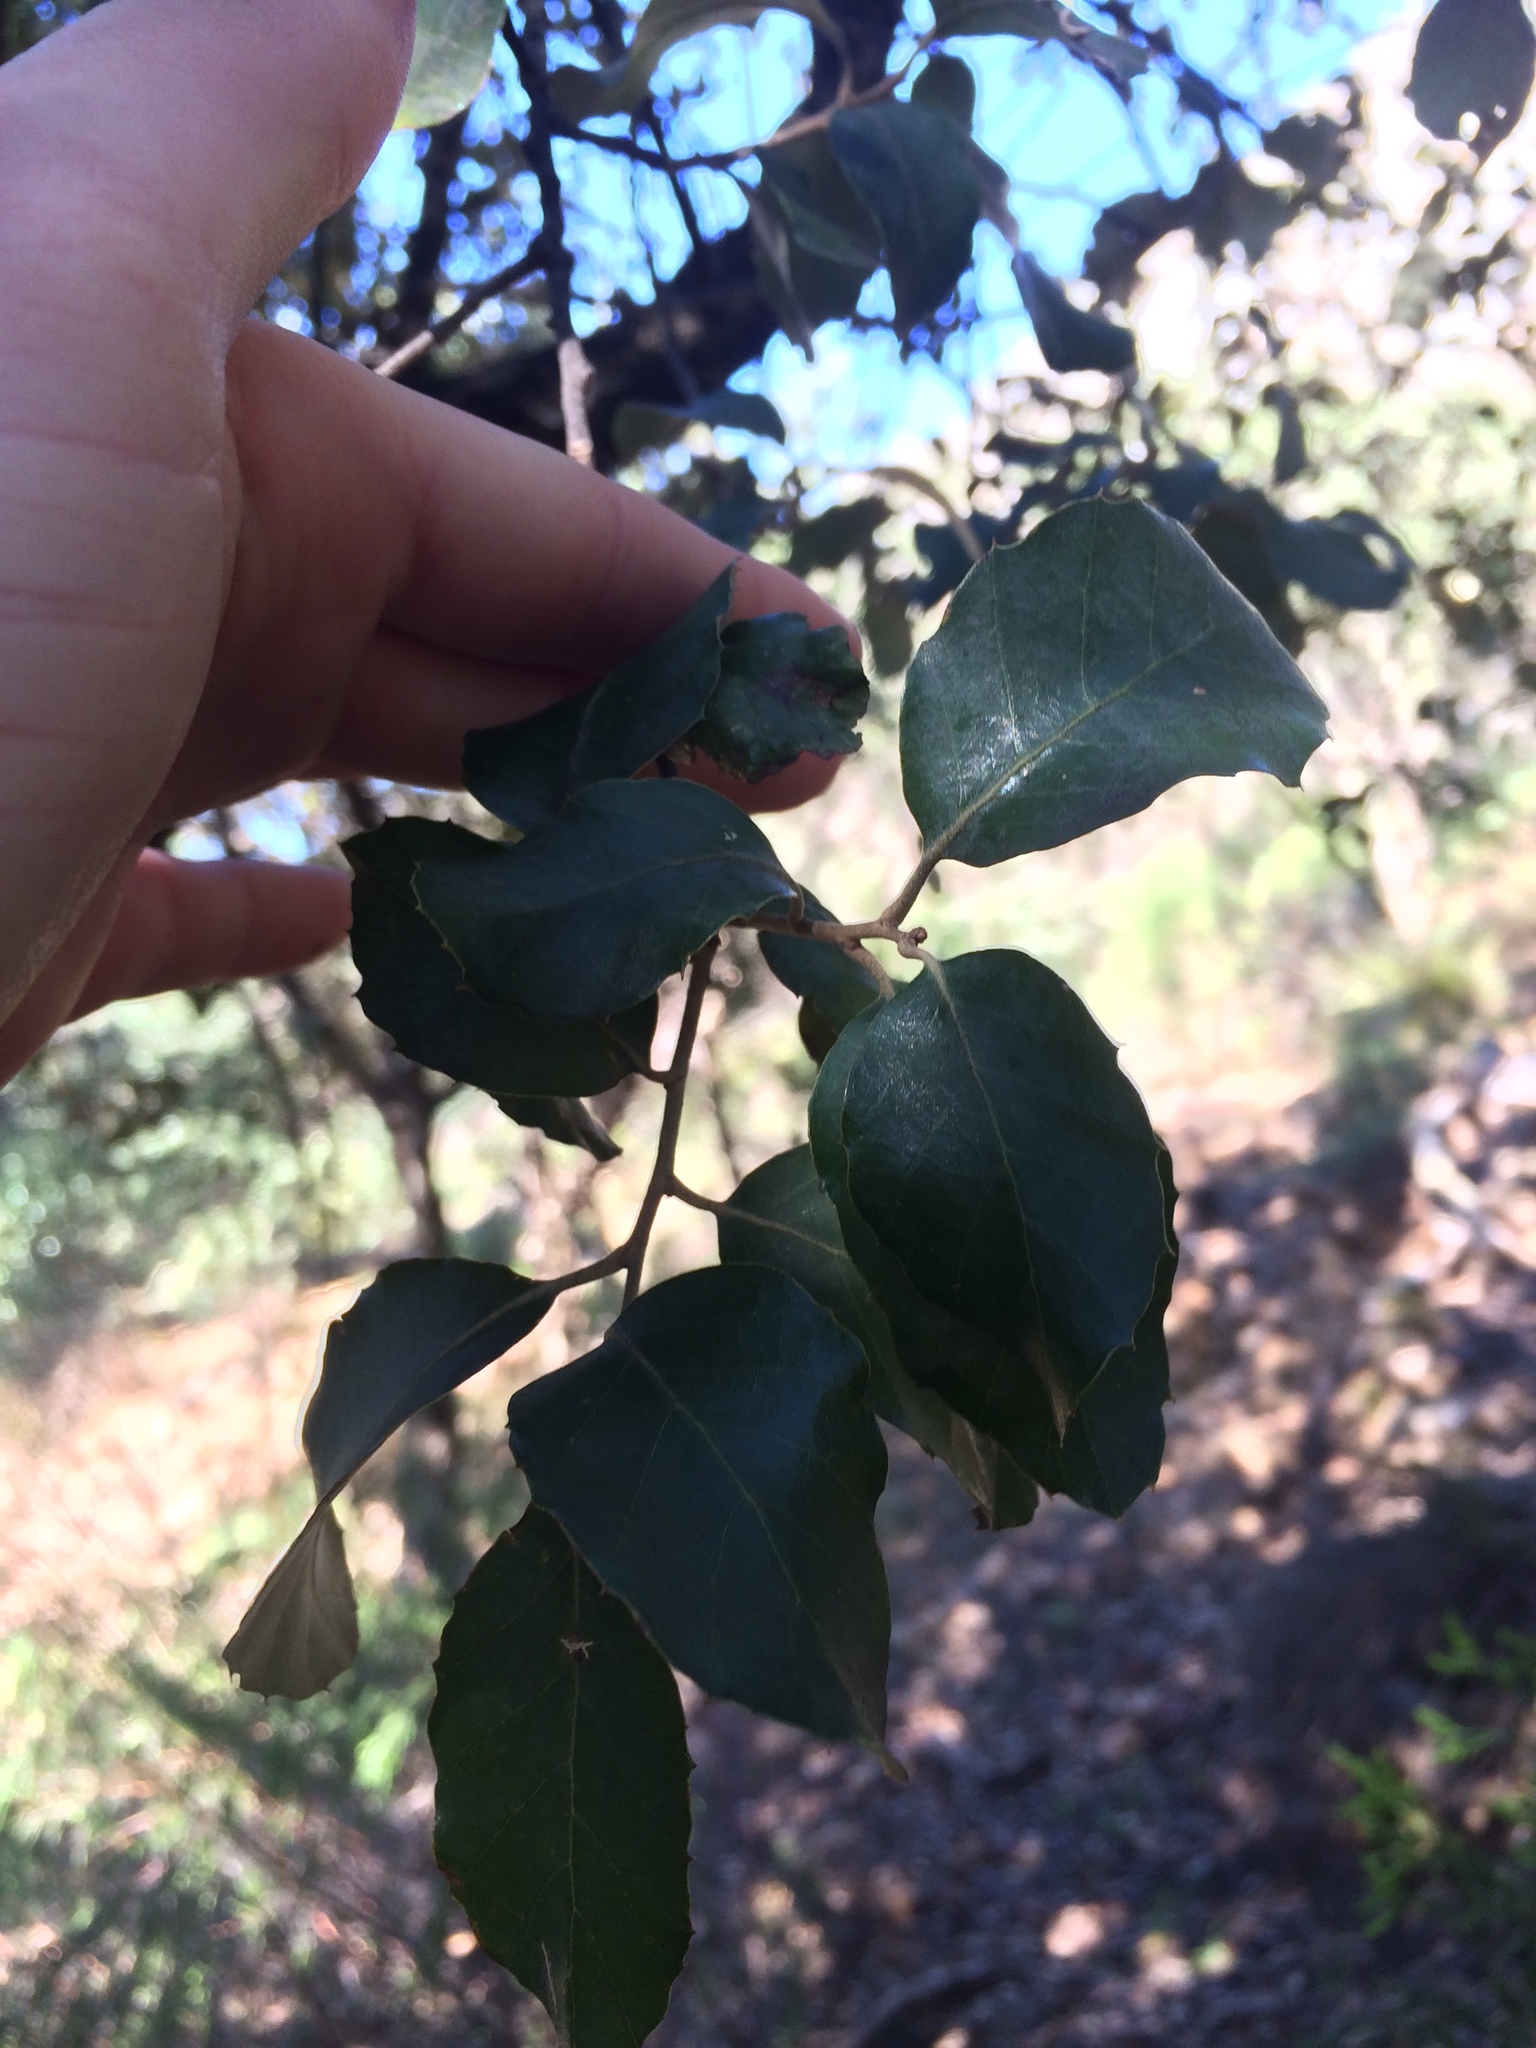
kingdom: Plantae
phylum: Tracheophyta
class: Magnoliopsida
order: Fagales
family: Fagaceae
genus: Quercus
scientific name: Quercus suber
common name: Cork oak
